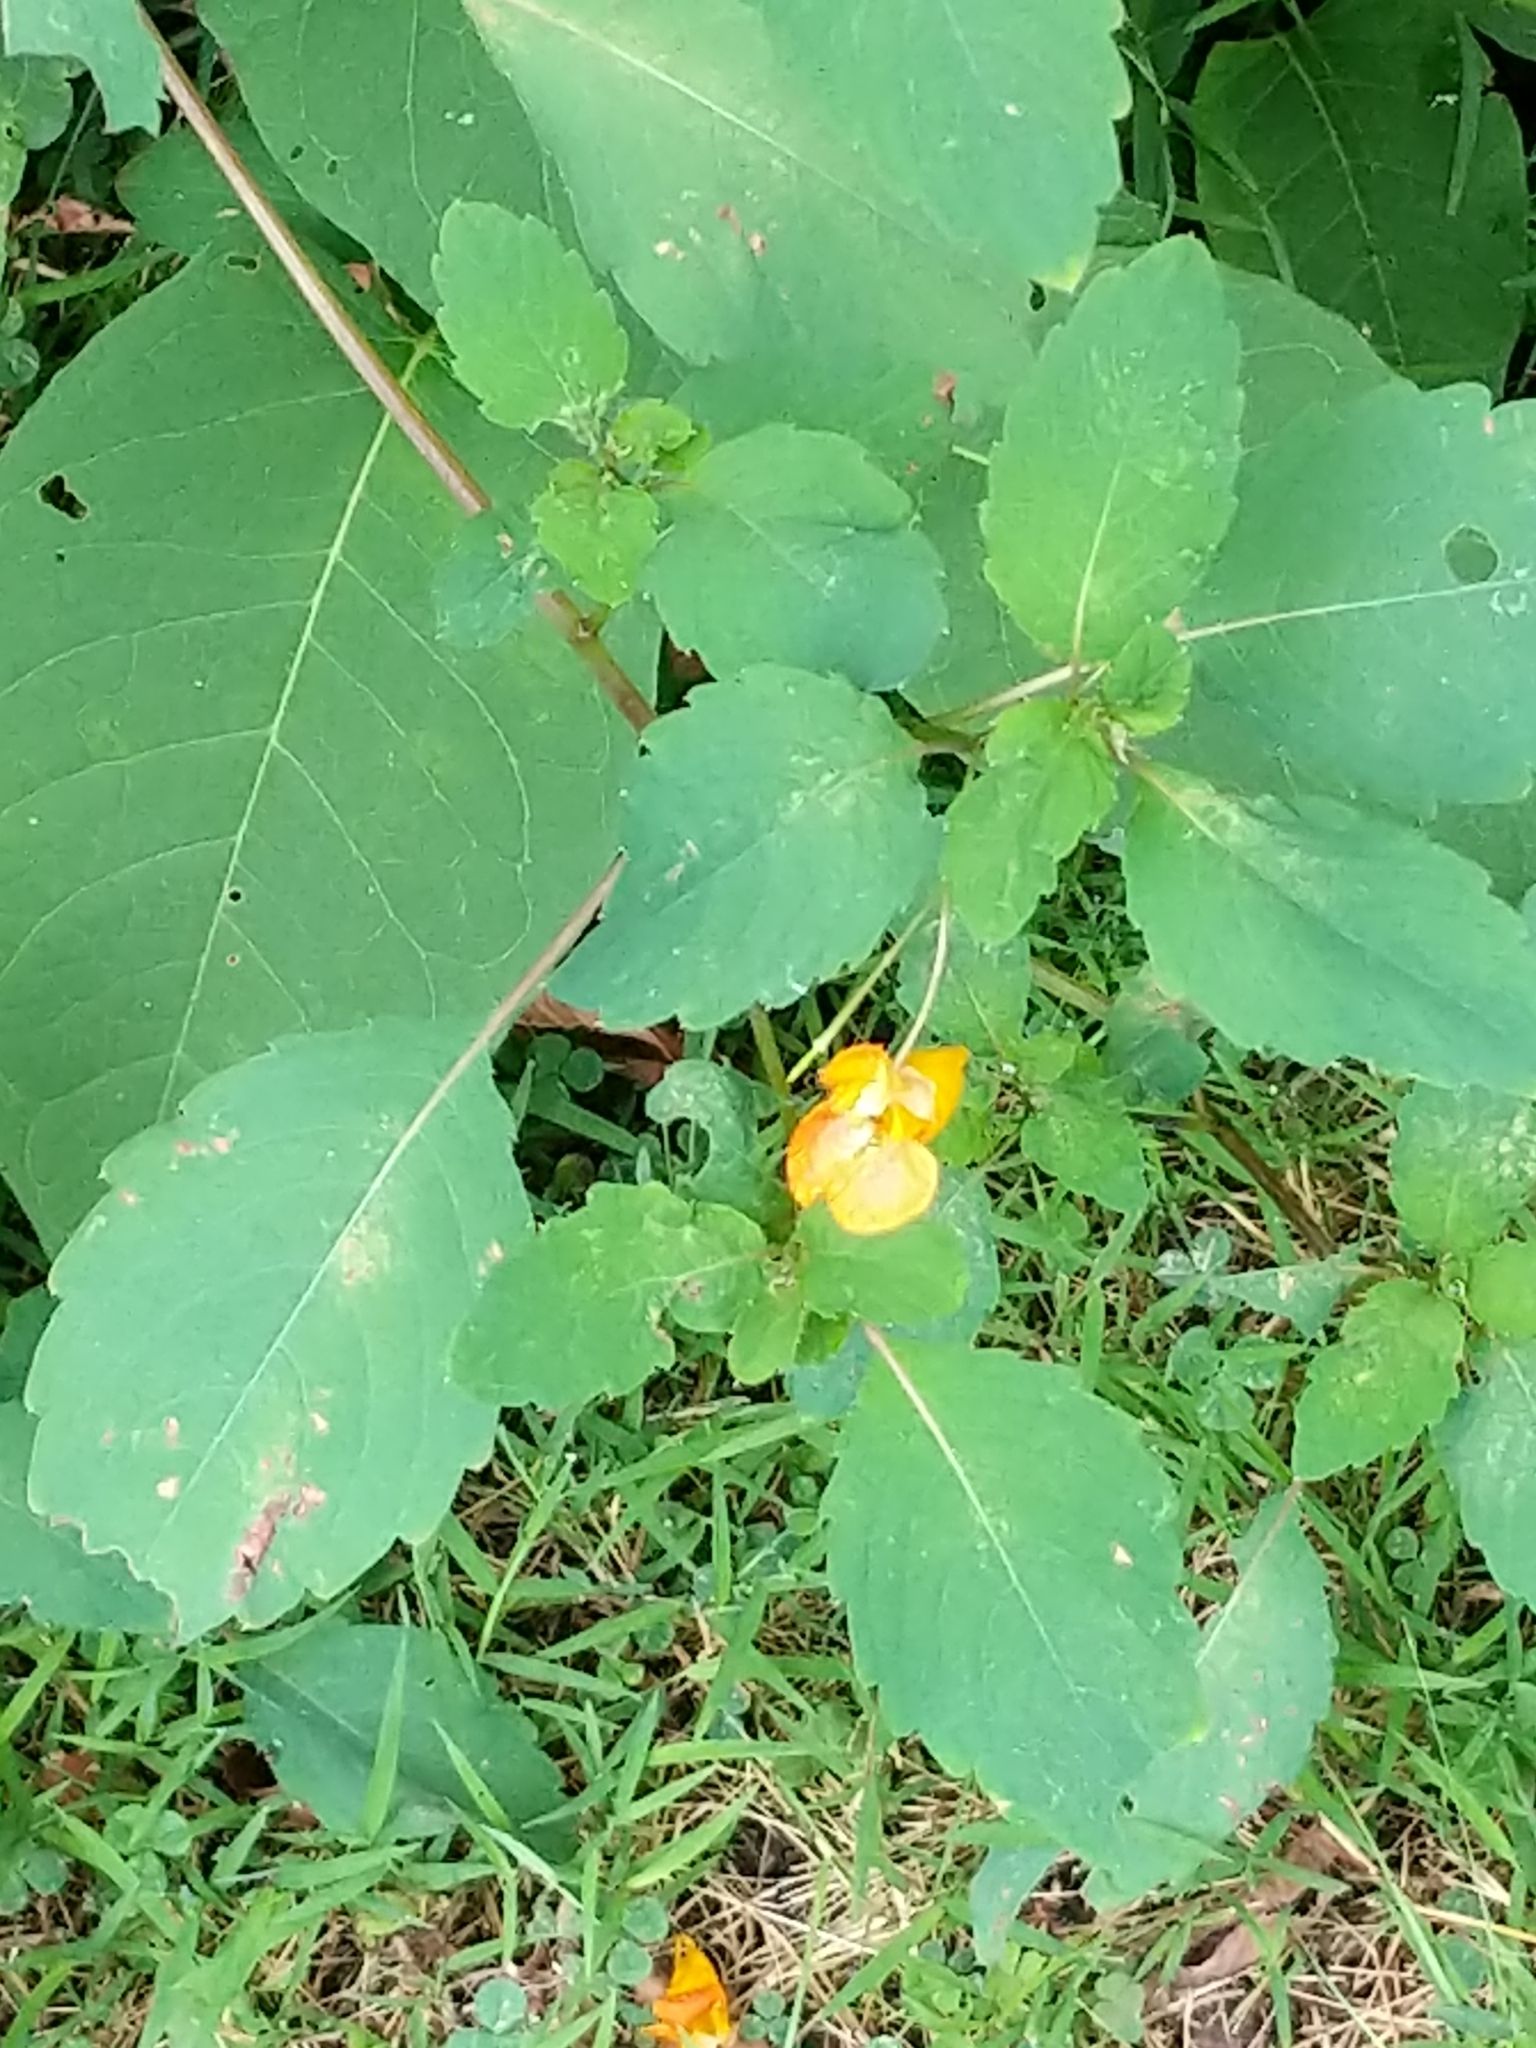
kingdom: Plantae
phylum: Tracheophyta
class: Magnoliopsida
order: Ericales
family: Balsaminaceae
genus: Impatiens
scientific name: Impatiens capensis
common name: Orange balsam
